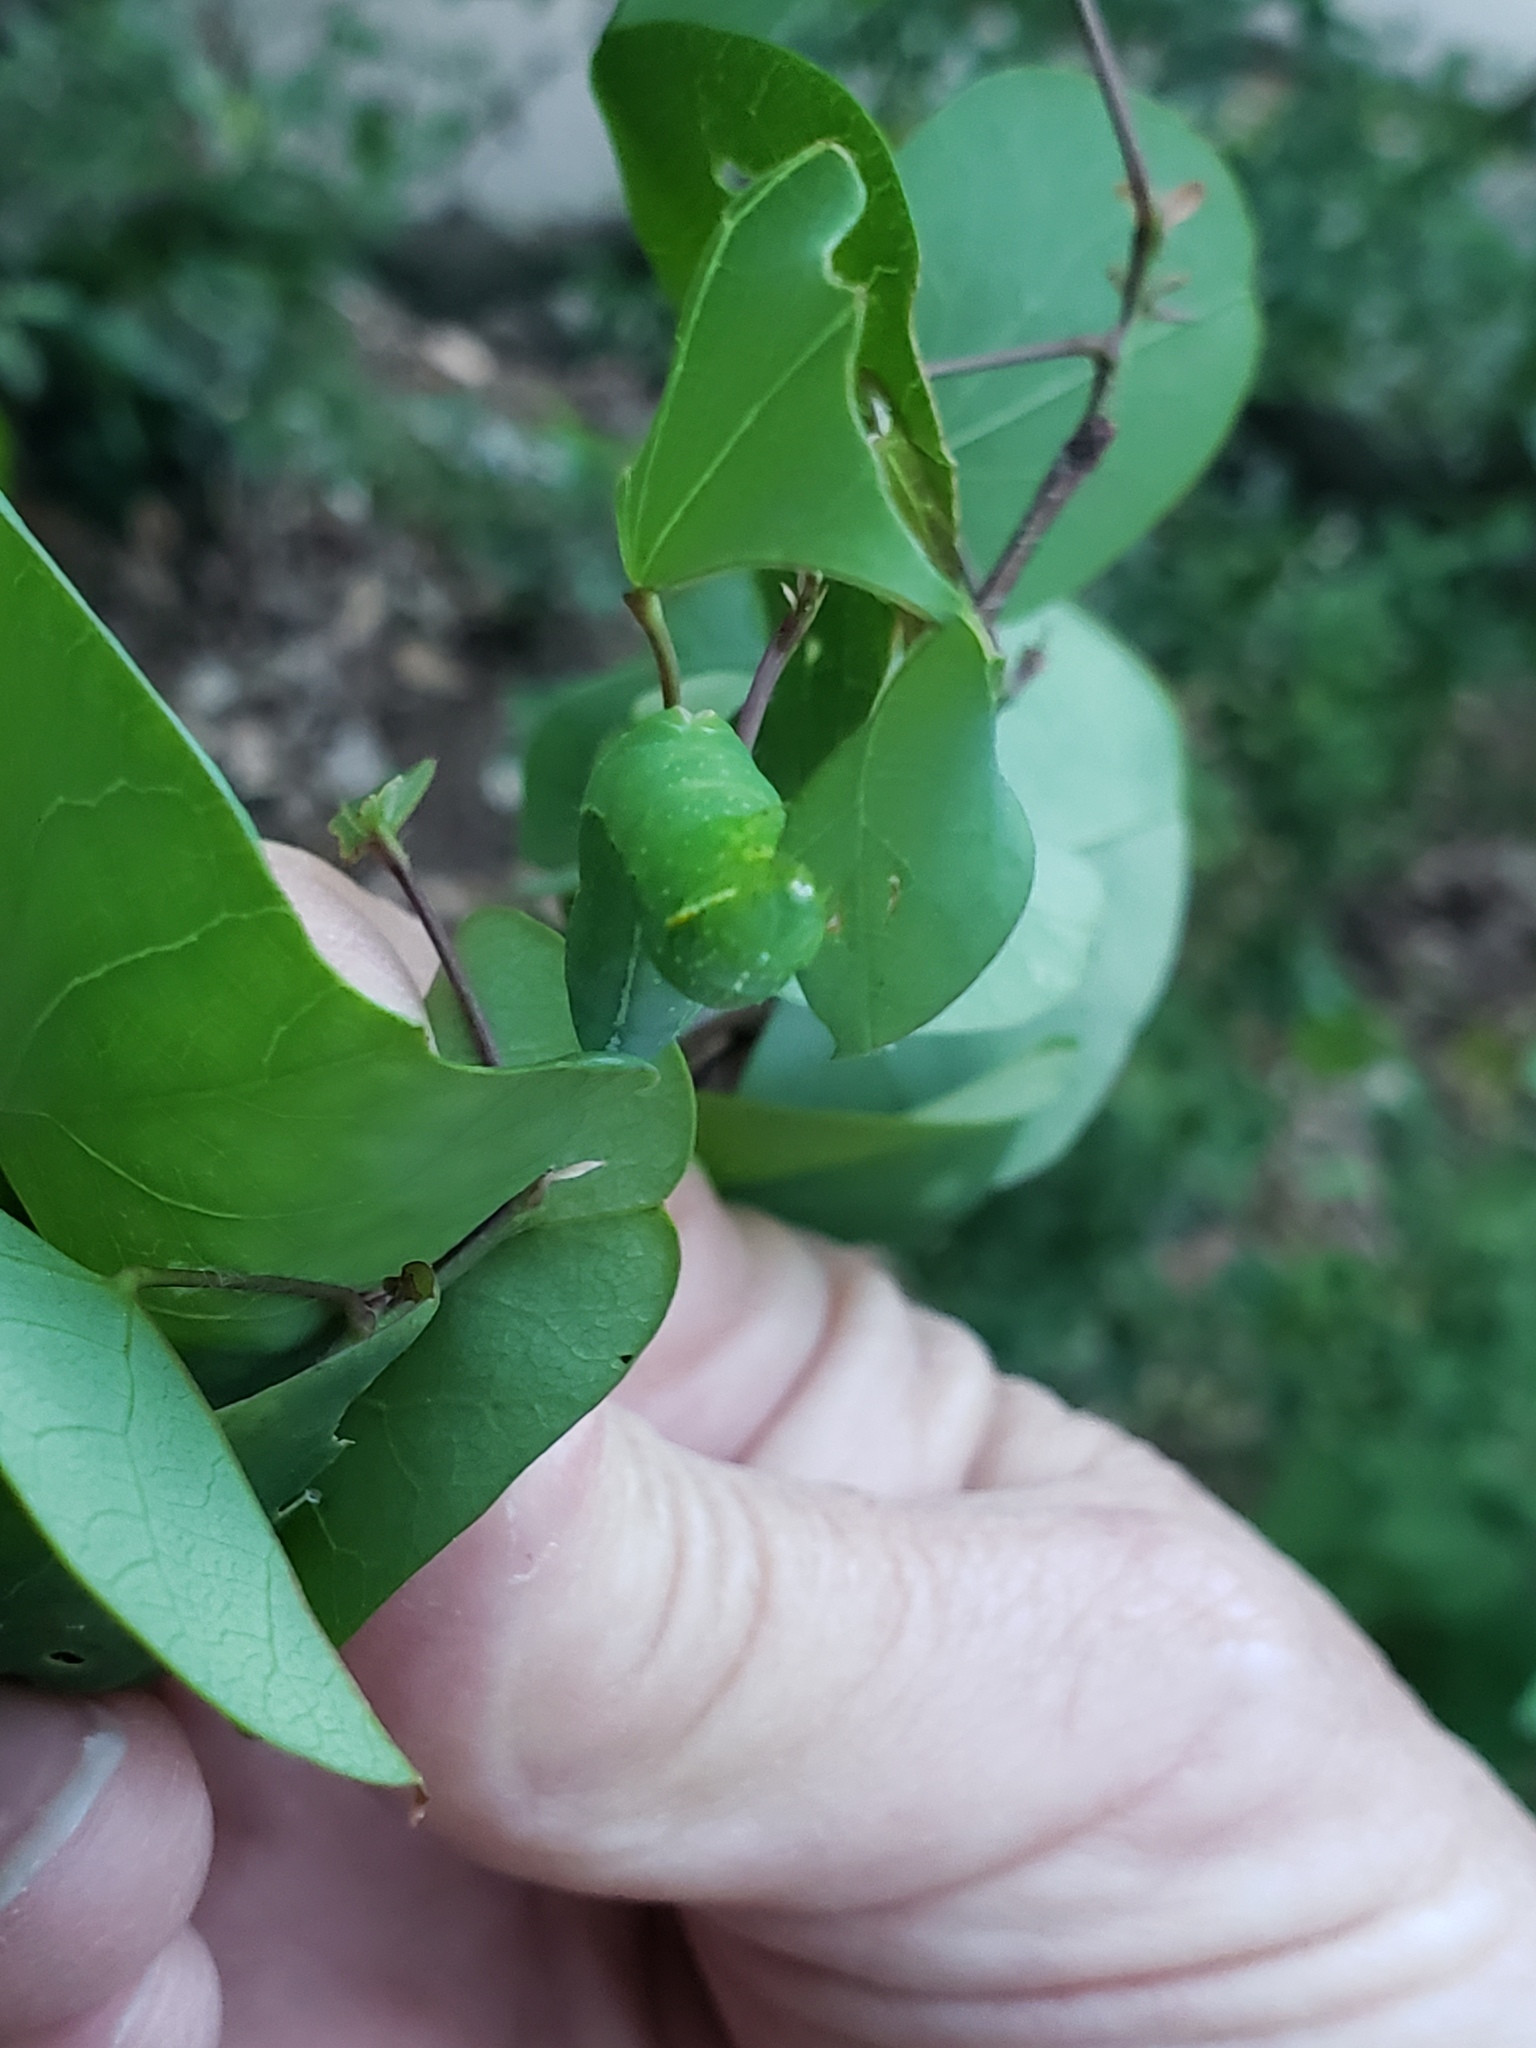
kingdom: Animalia
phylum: Arthropoda
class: Insecta
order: Lepidoptera
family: Noctuidae
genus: Amphipyra
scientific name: Amphipyra pyramidoides
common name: American copper underwing
